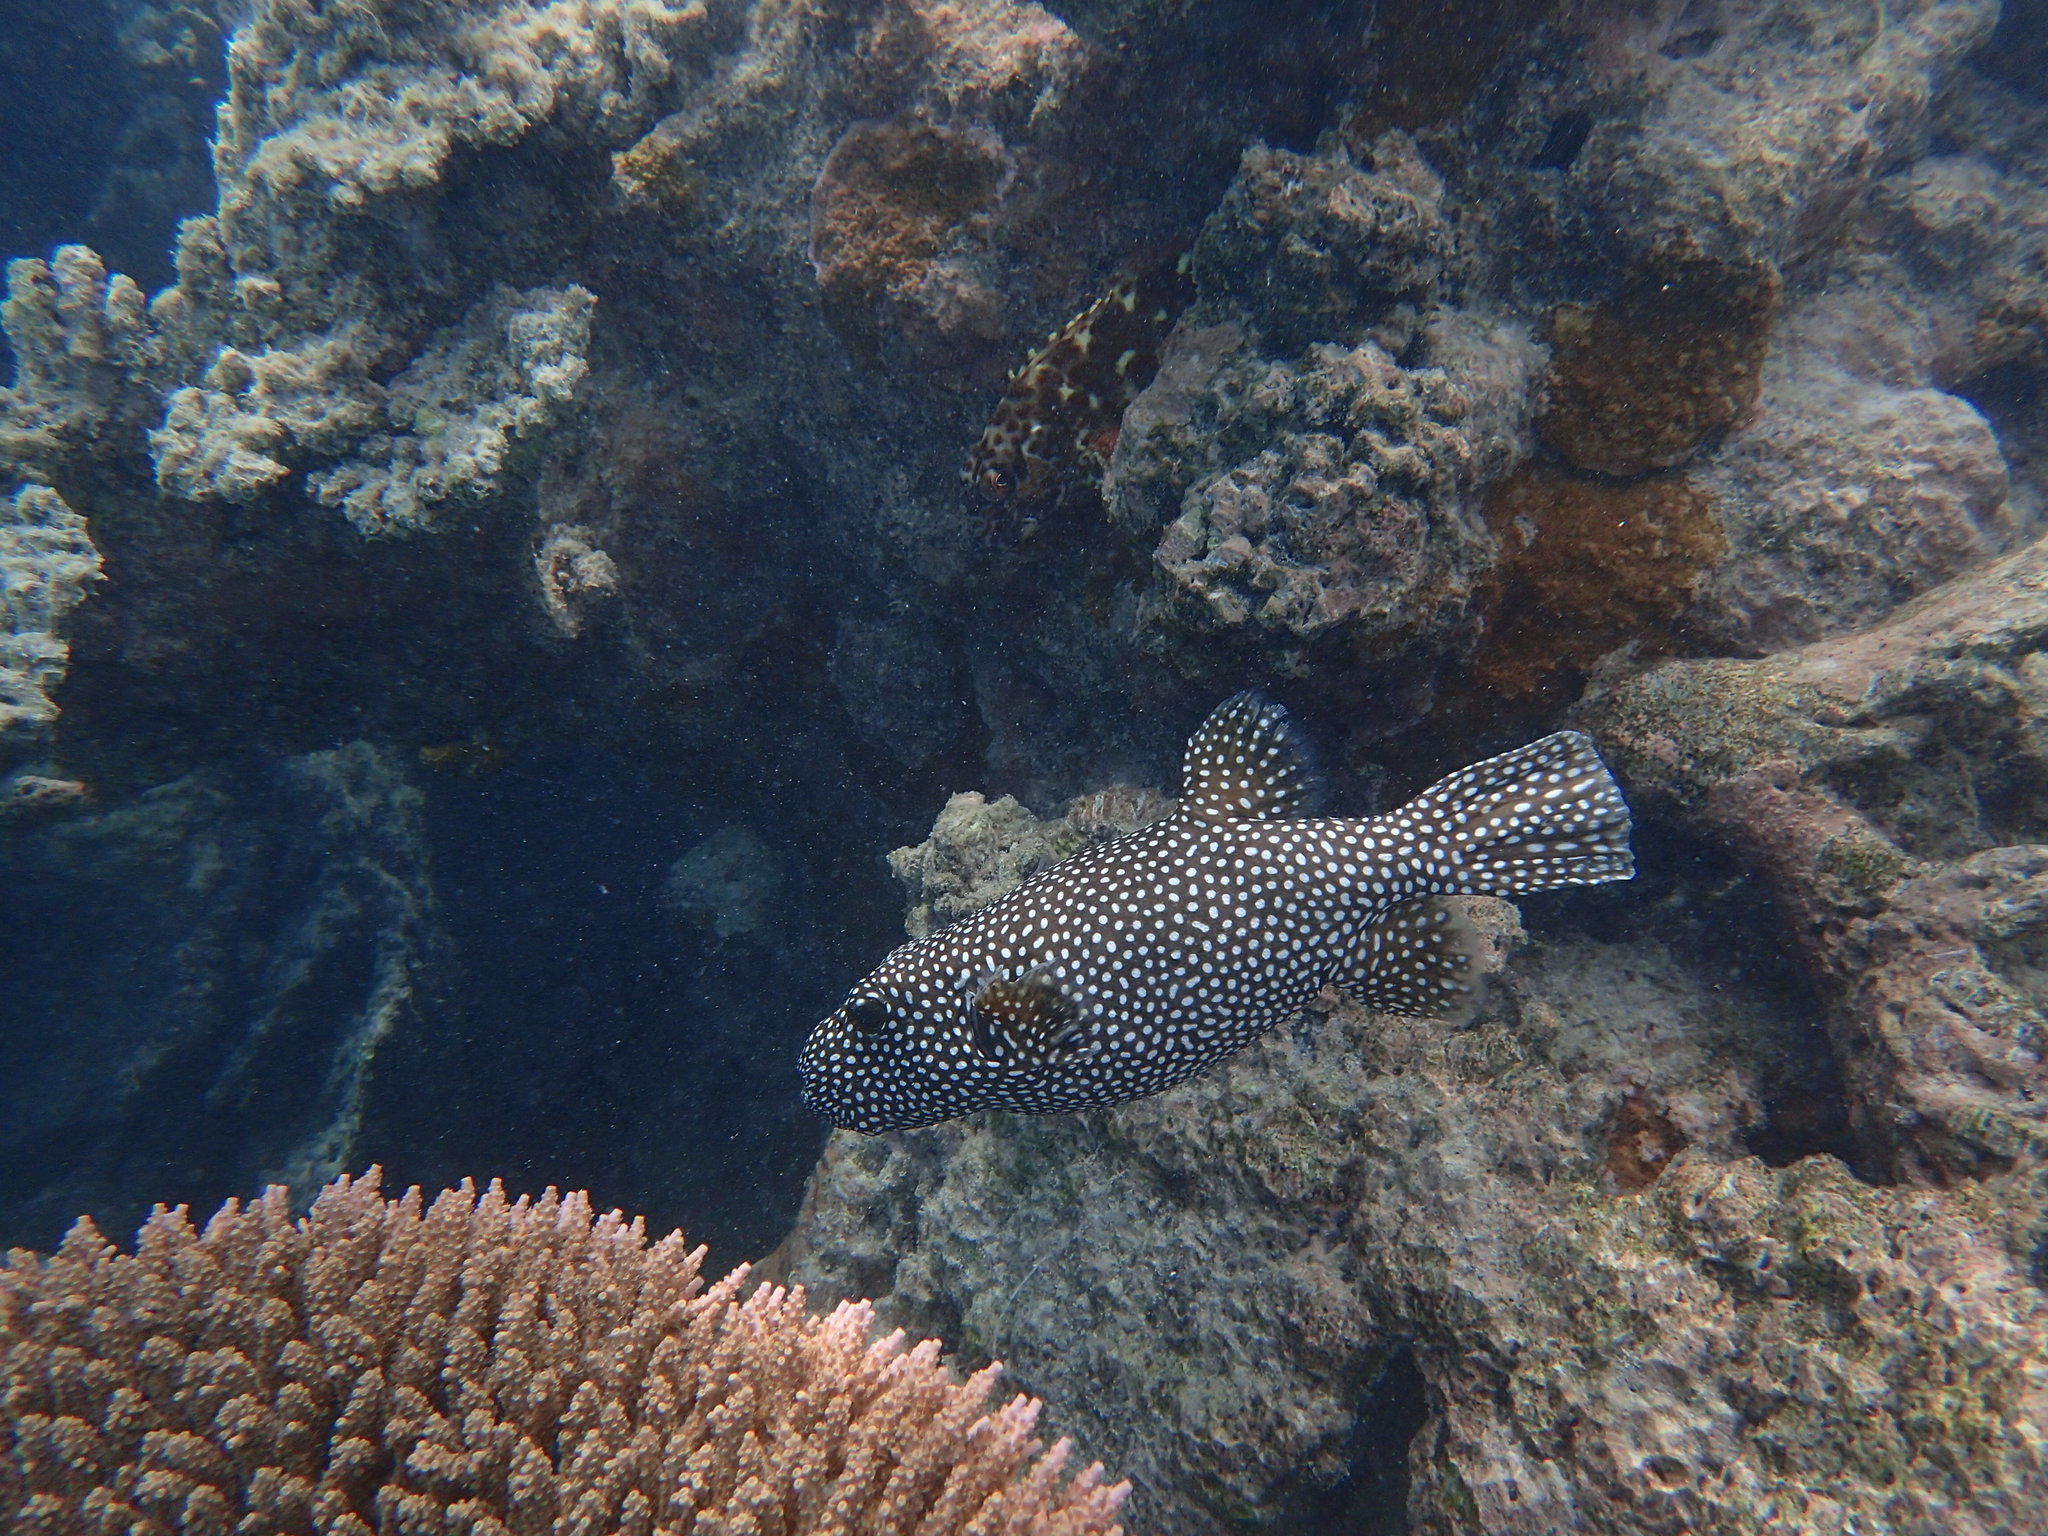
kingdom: Animalia
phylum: Chordata
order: Tetraodontiformes
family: Tetraodontidae
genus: Arothron
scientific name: Arothron meleagris
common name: Guinea-fowl pufferfish
